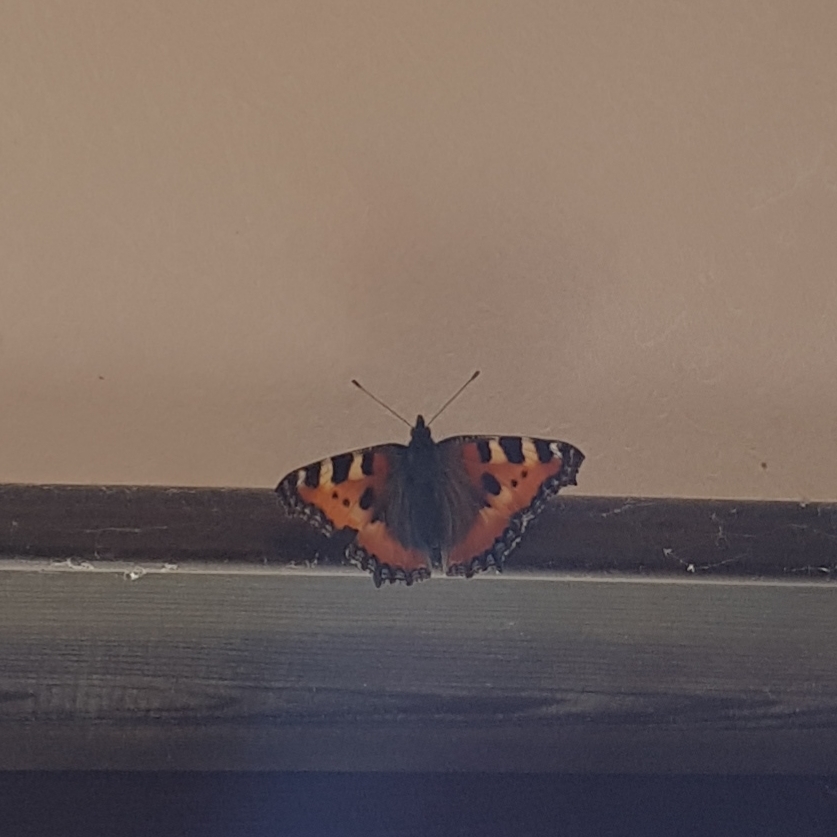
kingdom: Animalia
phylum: Arthropoda
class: Insecta
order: Lepidoptera
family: Nymphalidae
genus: Aglais
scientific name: Aglais urticae
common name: Small tortoiseshell
